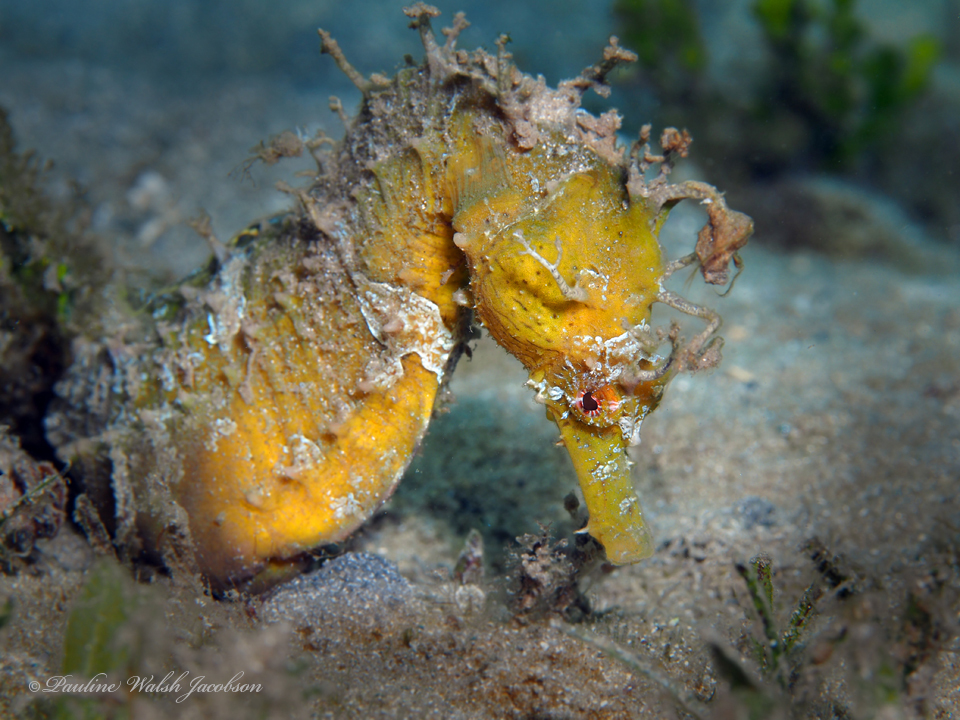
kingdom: Animalia
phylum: Chordata
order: Syngnathiformes
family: Syngnathidae
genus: Hippocampus
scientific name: Hippocampus erectus
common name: Lined seahorse
